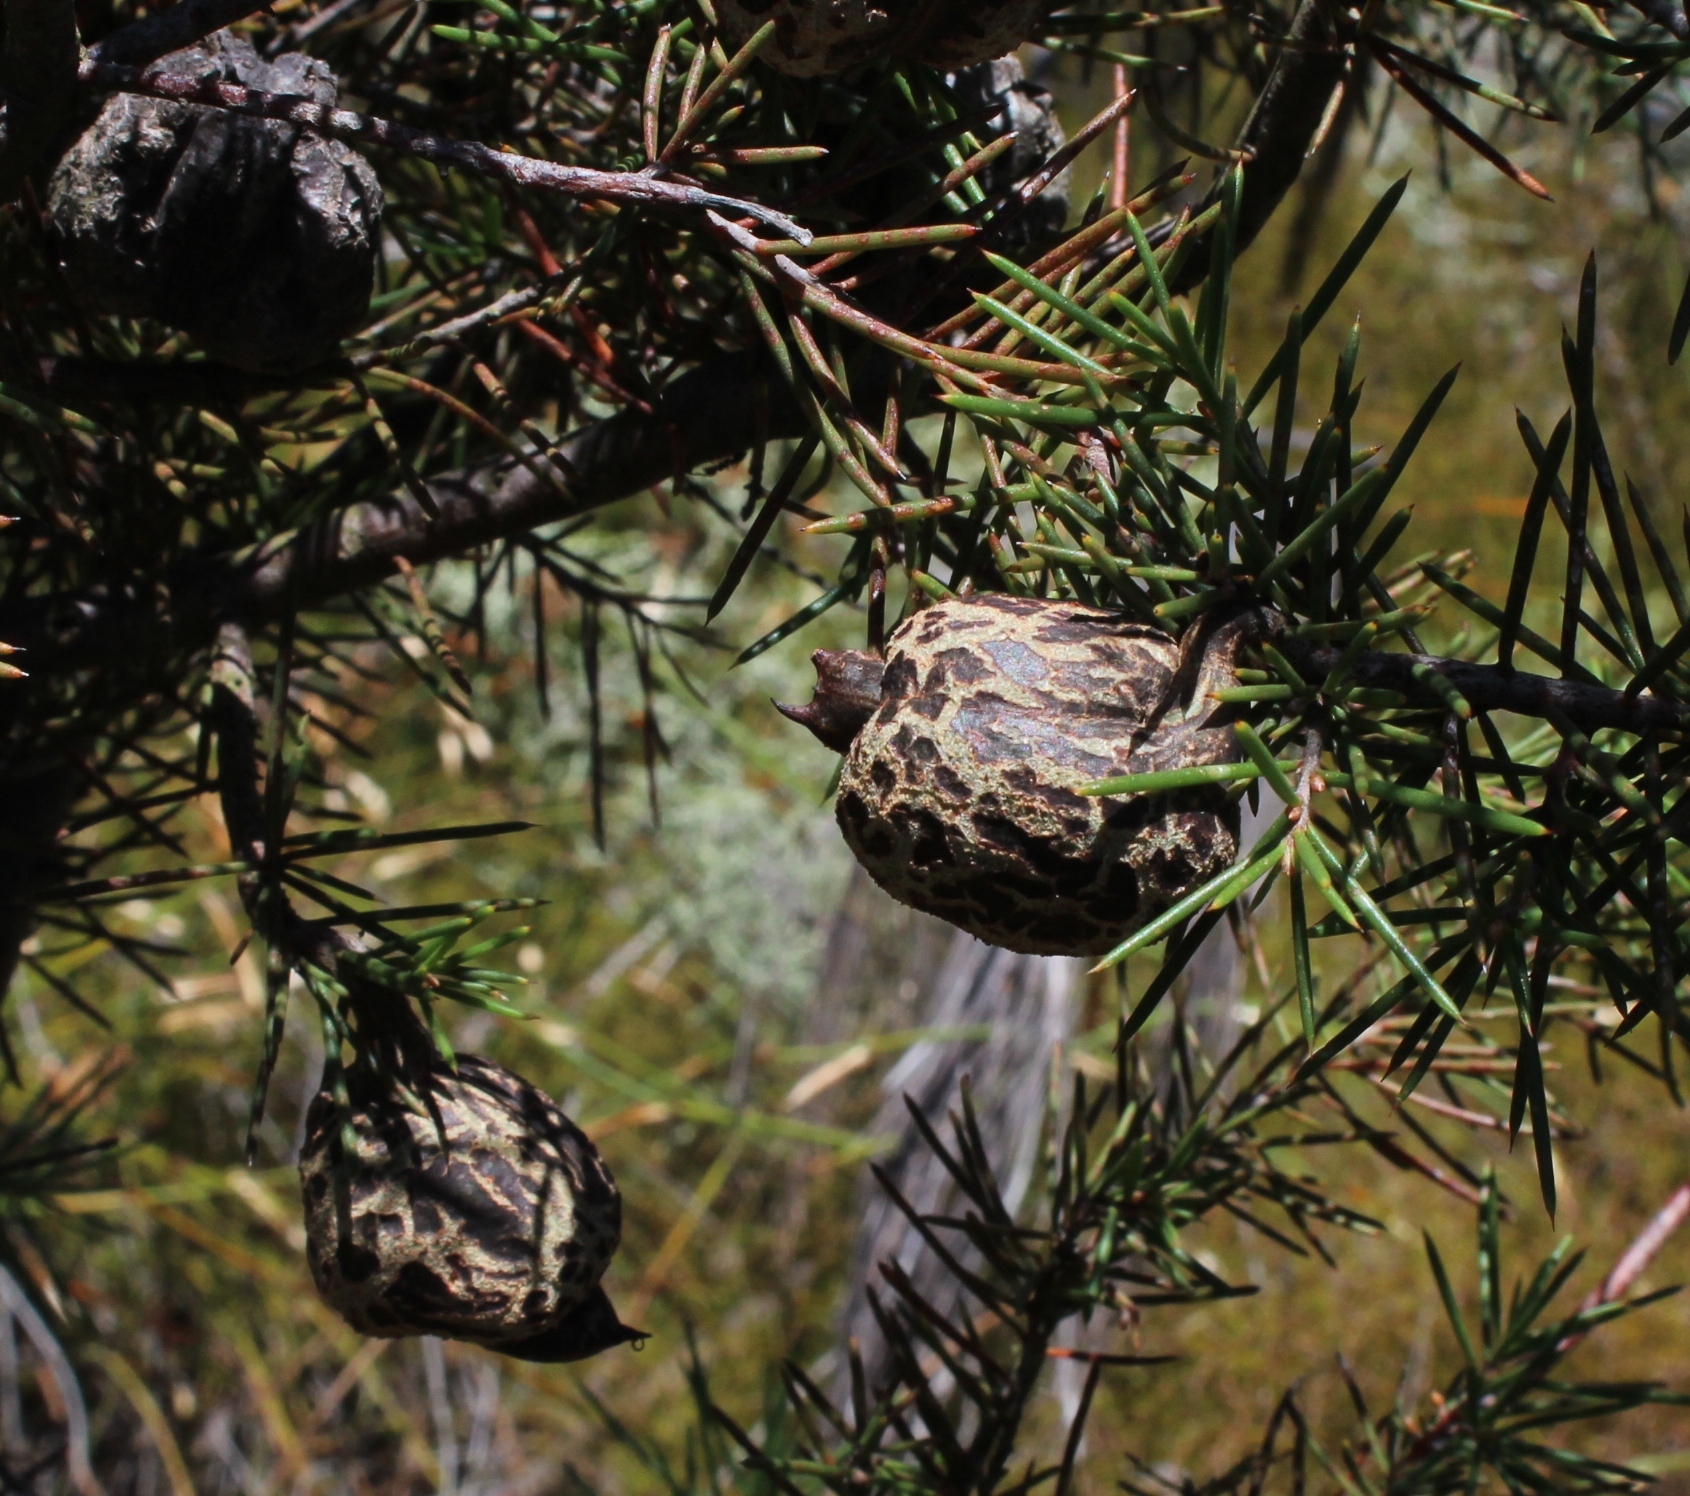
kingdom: Plantae
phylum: Tracheophyta
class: Magnoliopsida
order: Proteales
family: Proteaceae
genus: Hakea
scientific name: Hakea sericea
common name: Needle bush
